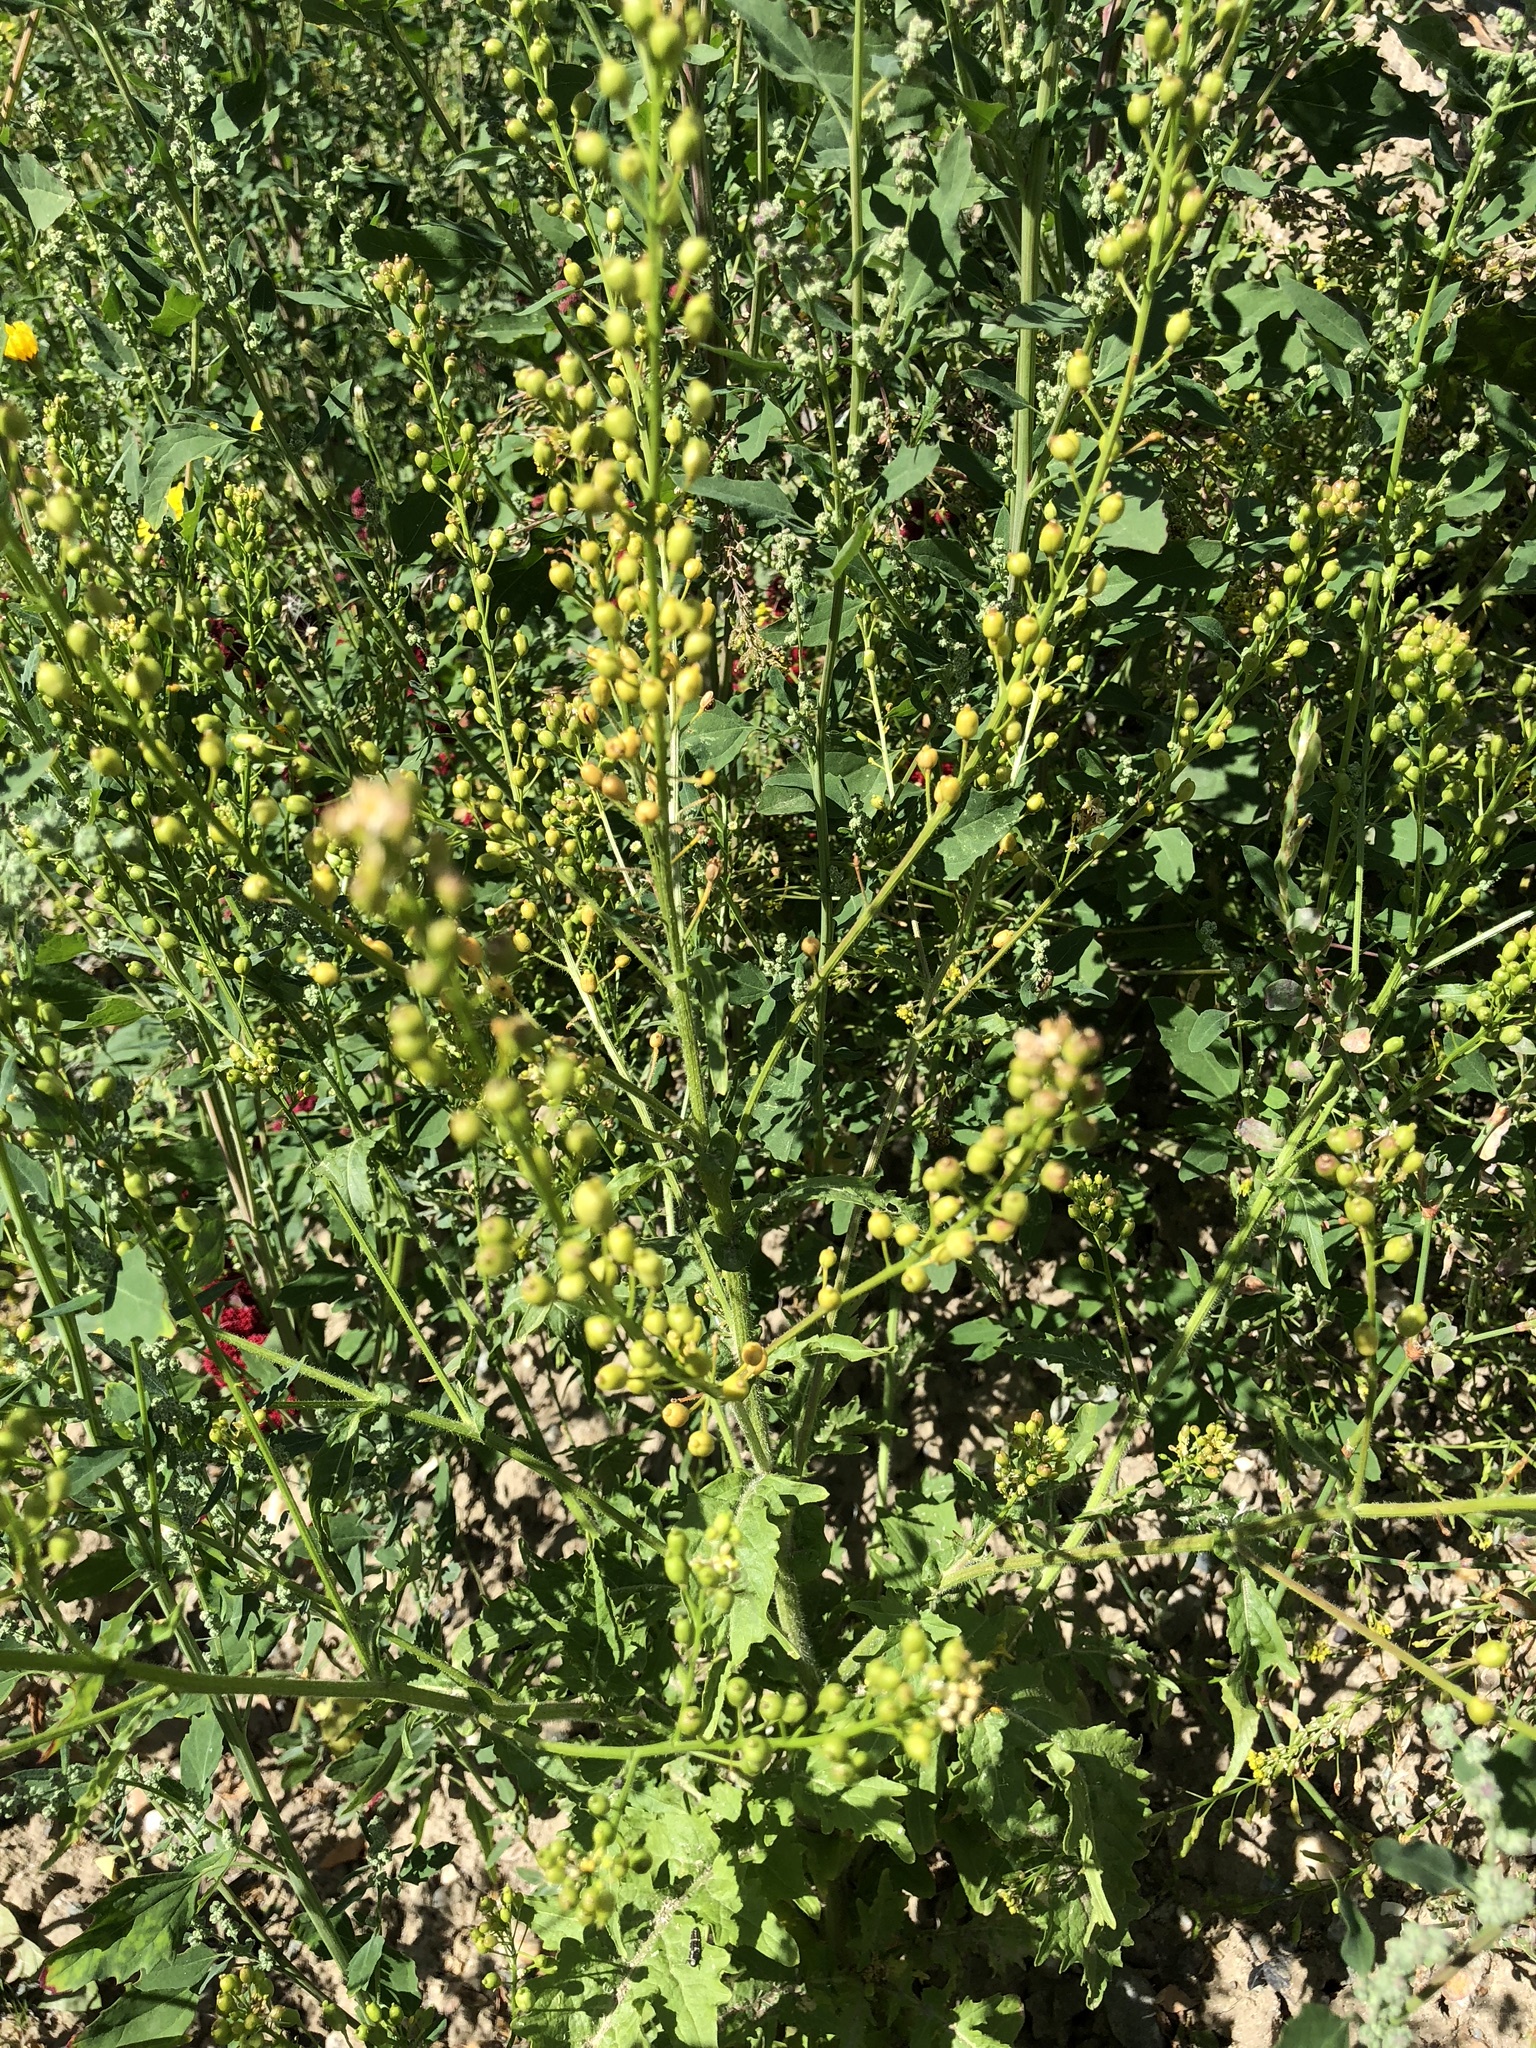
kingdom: Plantae
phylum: Tracheophyta
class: Magnoliopsida
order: Brassicales
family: Brassicaceae
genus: Rorippa
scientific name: Rorippa barbareifolia
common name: Hoary yellowcress
